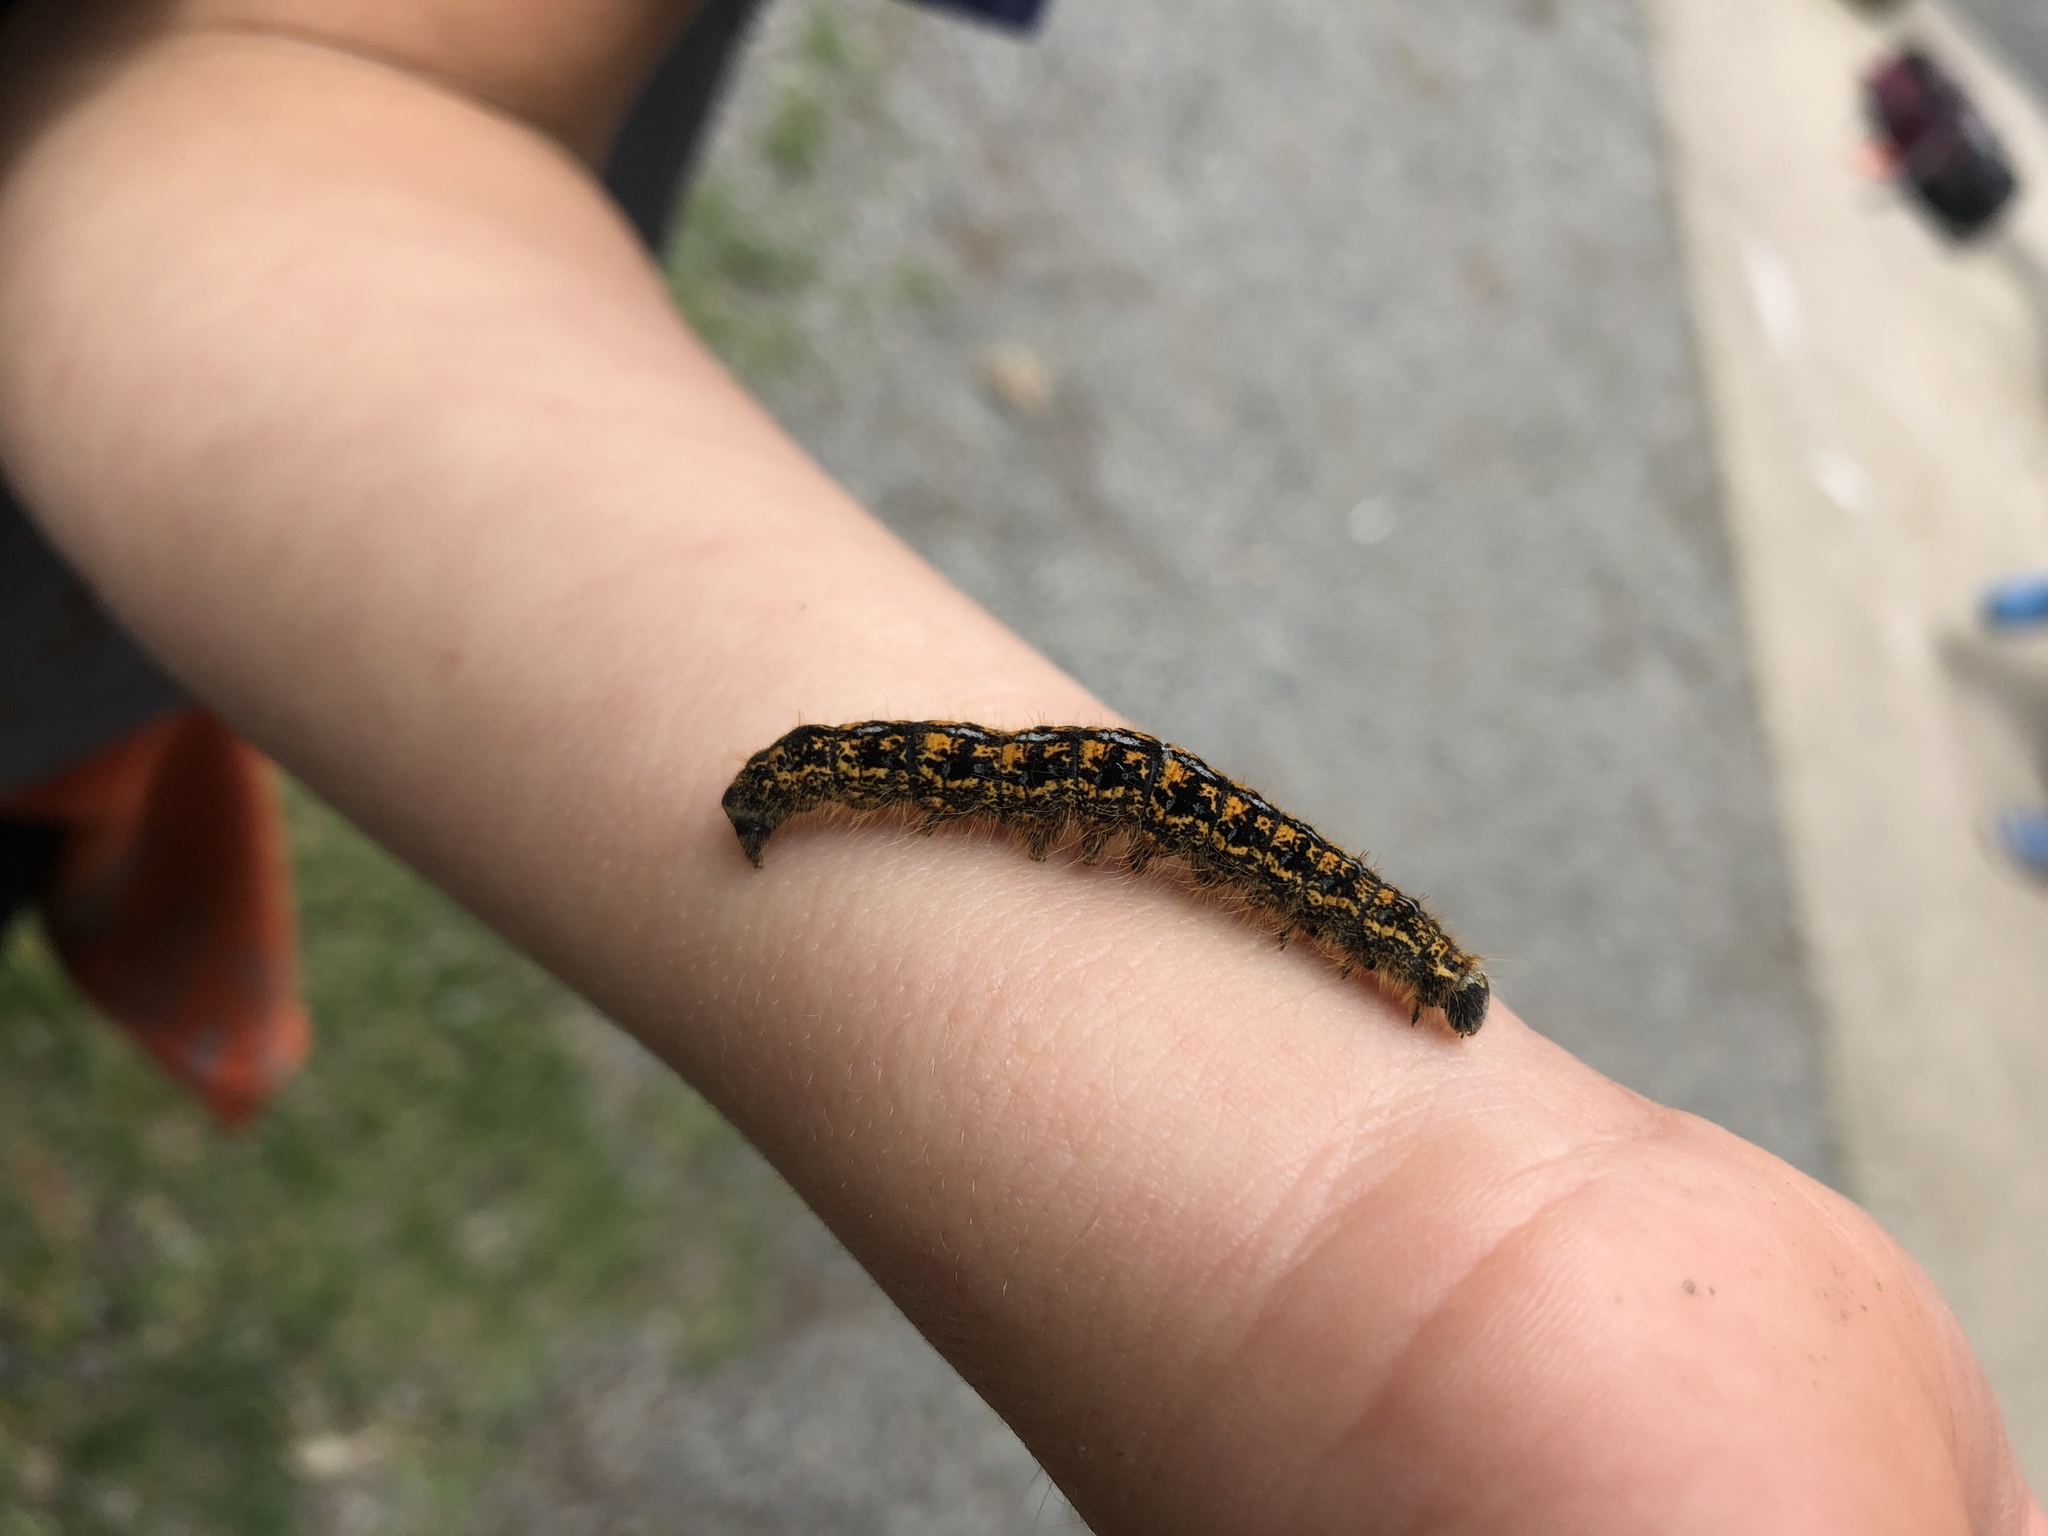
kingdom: Animalia
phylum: Arthropoda
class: Insecta
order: Lepidoptera
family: Lasiocampidae
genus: Malacosoma
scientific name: Malacosoma californica
